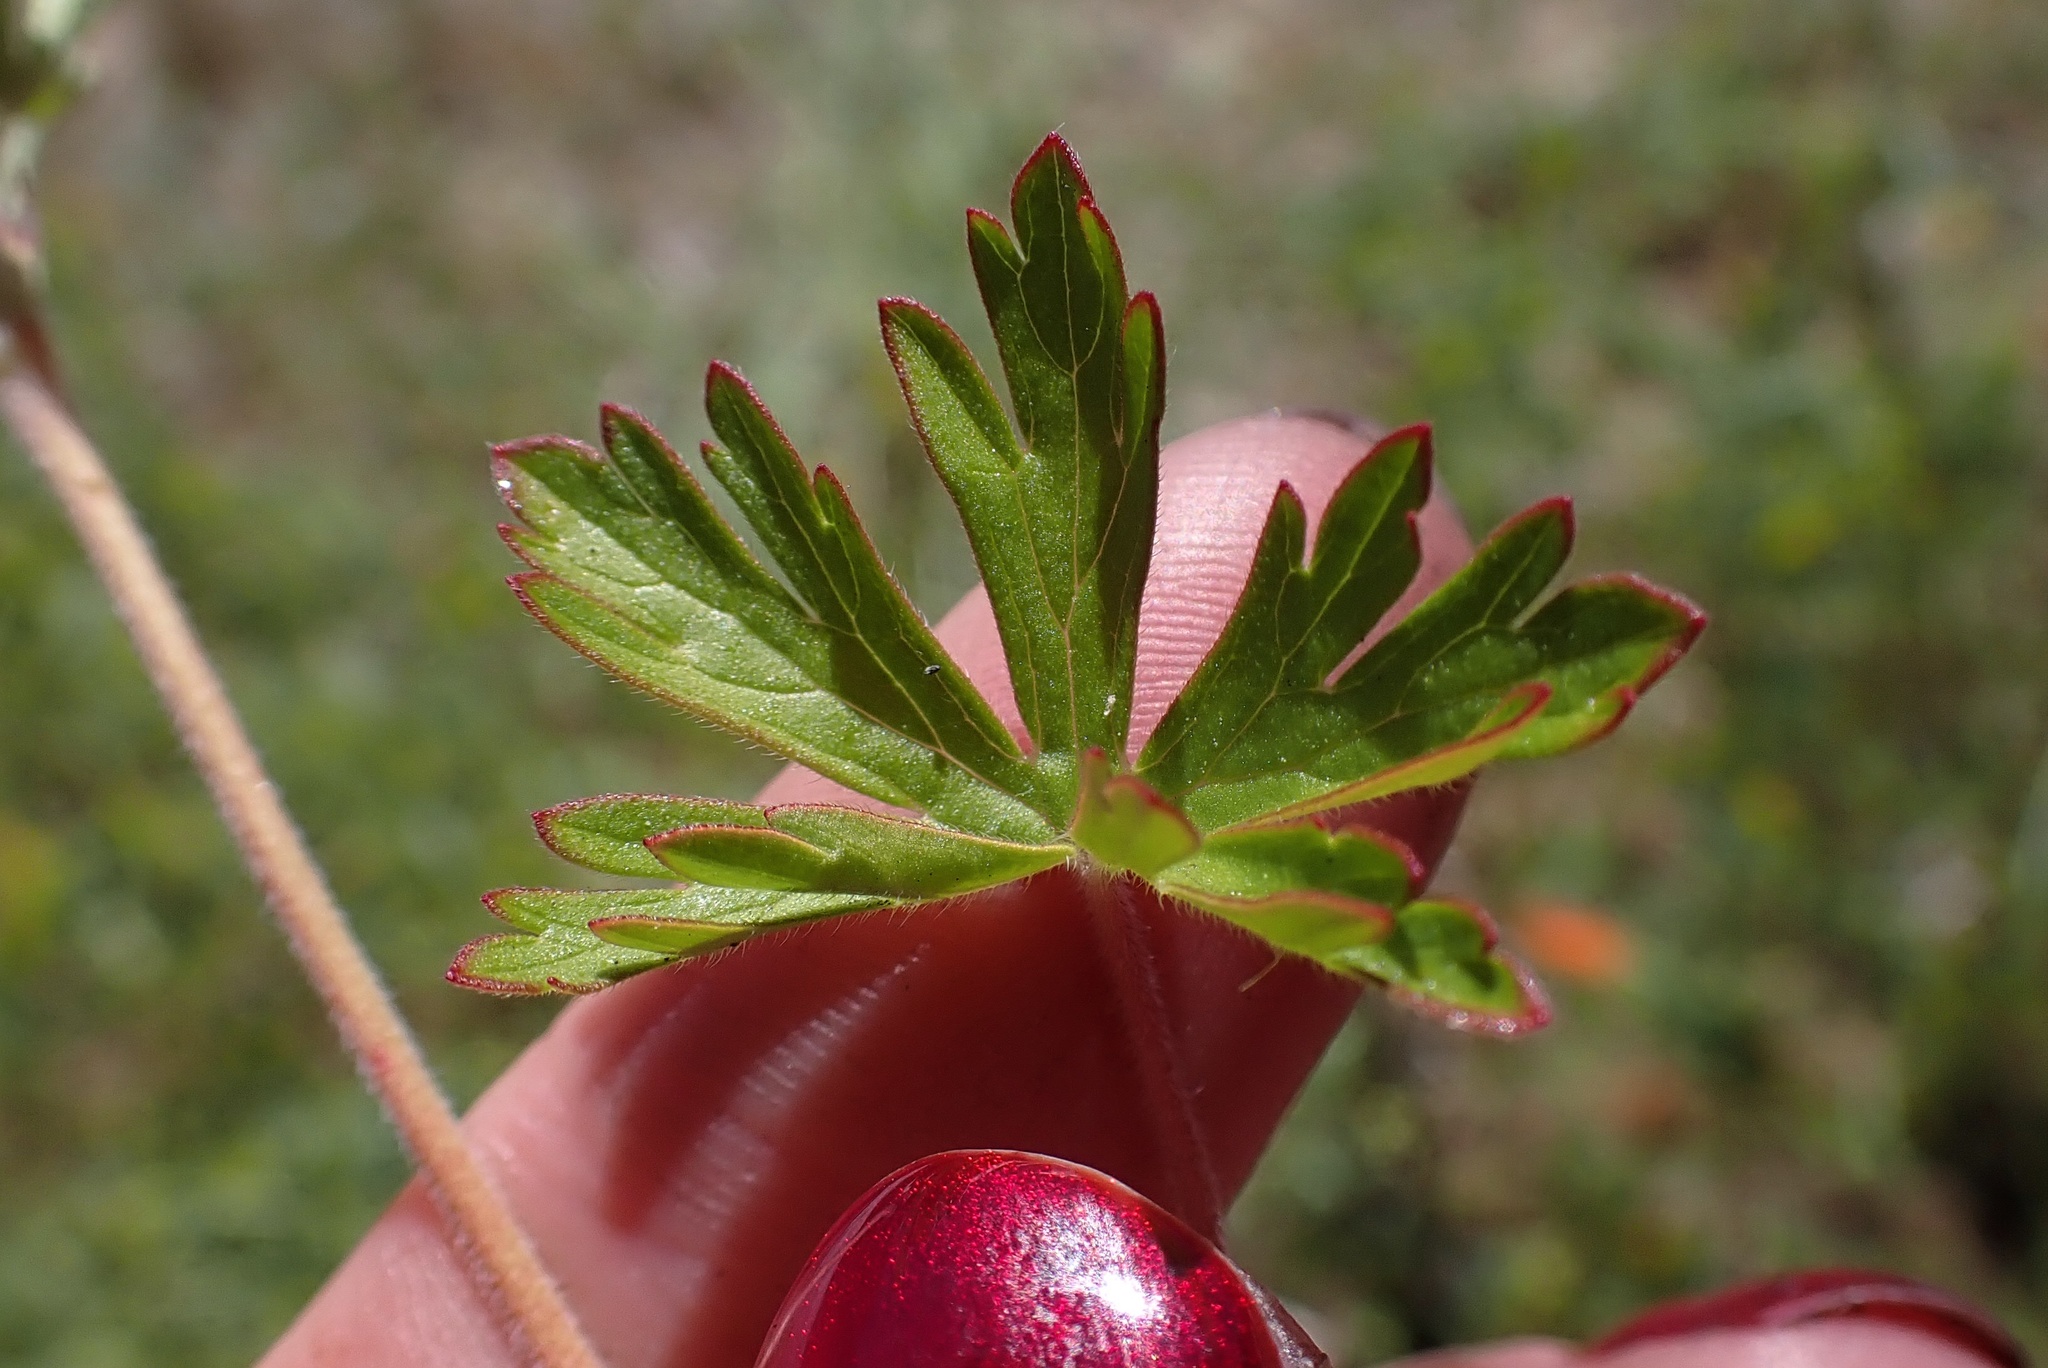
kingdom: Plantae
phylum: Tracheophyta
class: Magnoliopsida
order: Geraniales
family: Geraniaceae
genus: Geranium
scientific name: Geranium carolinianum
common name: Carolina crane's-bill
